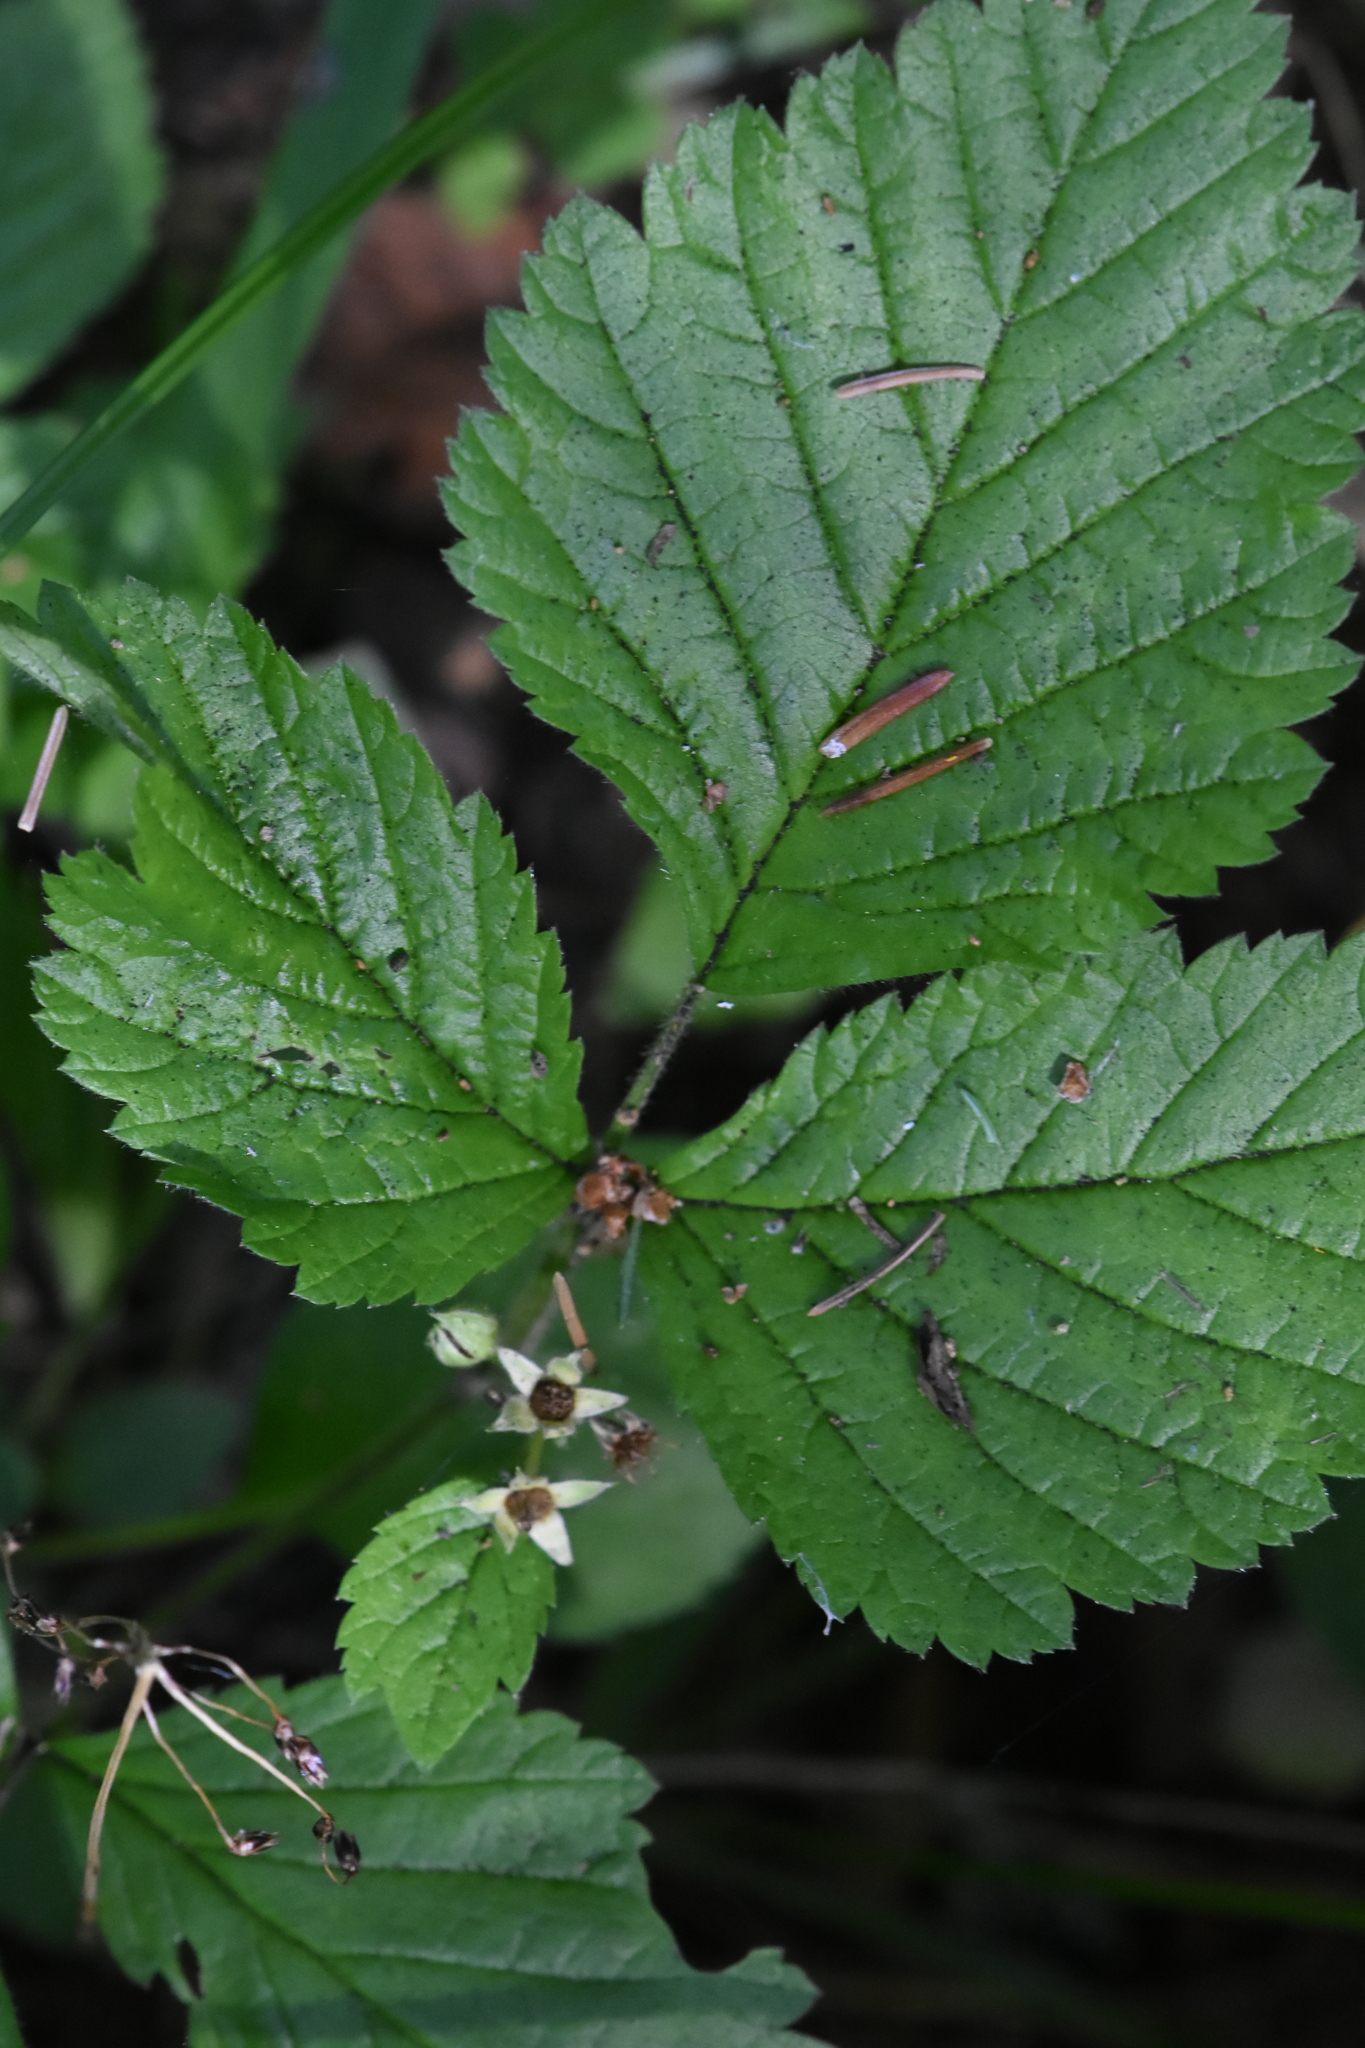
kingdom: Plantae
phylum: Tracheophyta
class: Magnoliopsida
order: Rosales
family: Rosaceae
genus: Rubus
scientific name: Rubus saxatilis
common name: Stone bramble
